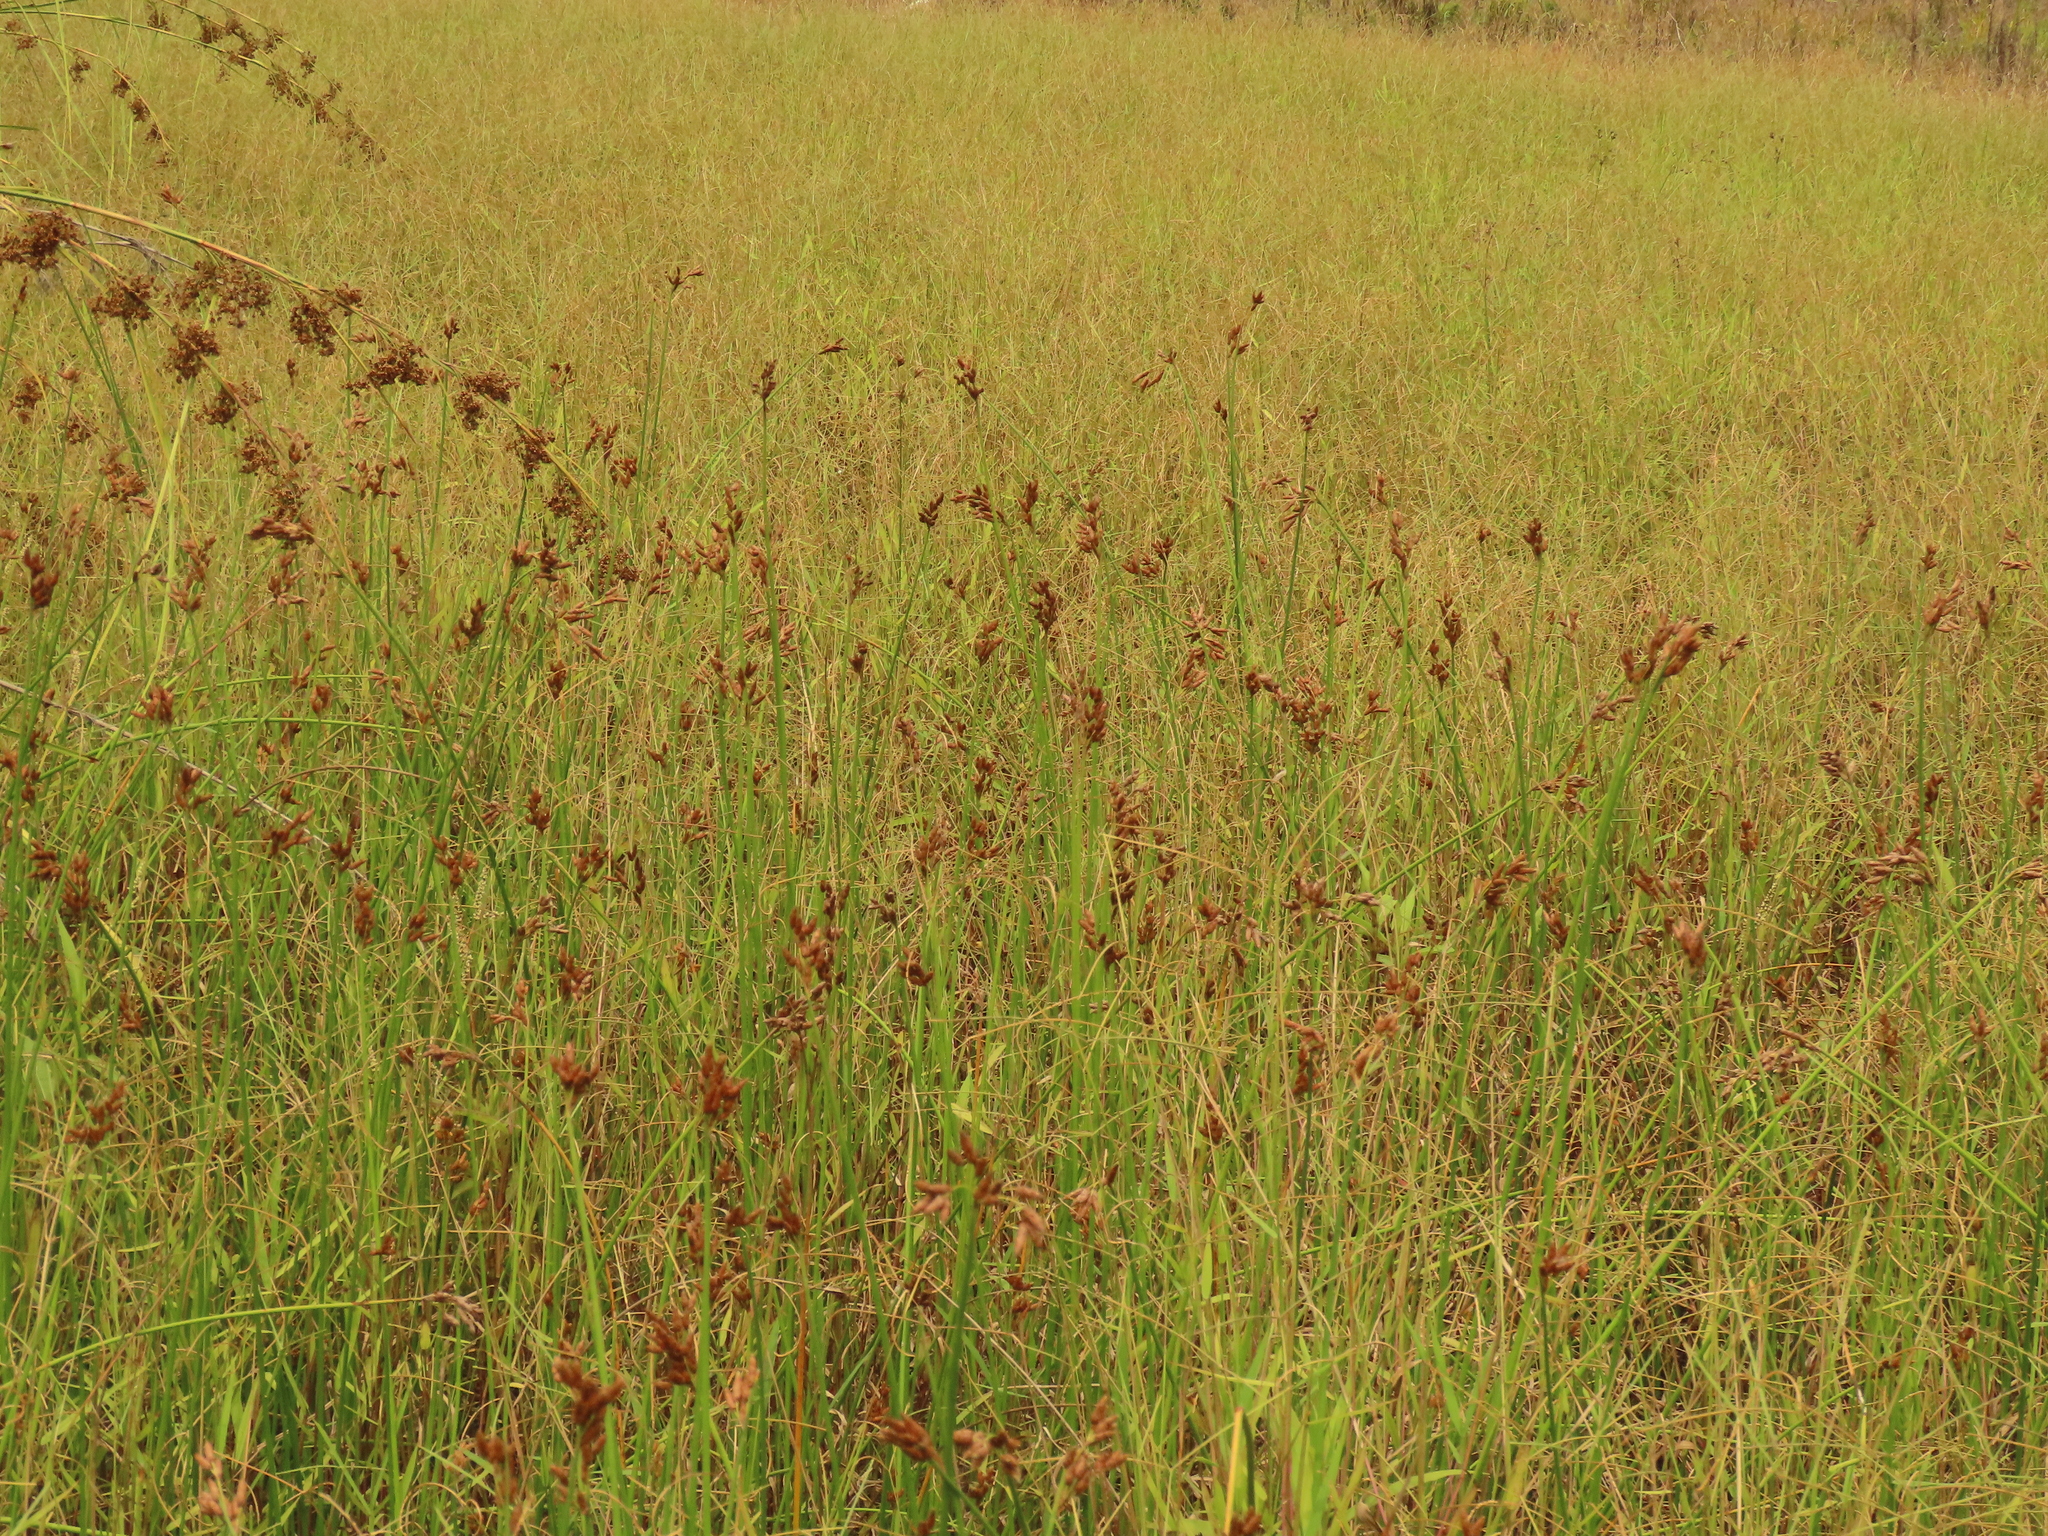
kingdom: Plantae
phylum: Tracheophyta
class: Liliopsida
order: Poales
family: Cyperaceae
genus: Schoenoplectus
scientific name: Schoenoplectus tabernaemontani
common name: Grey club-rush
